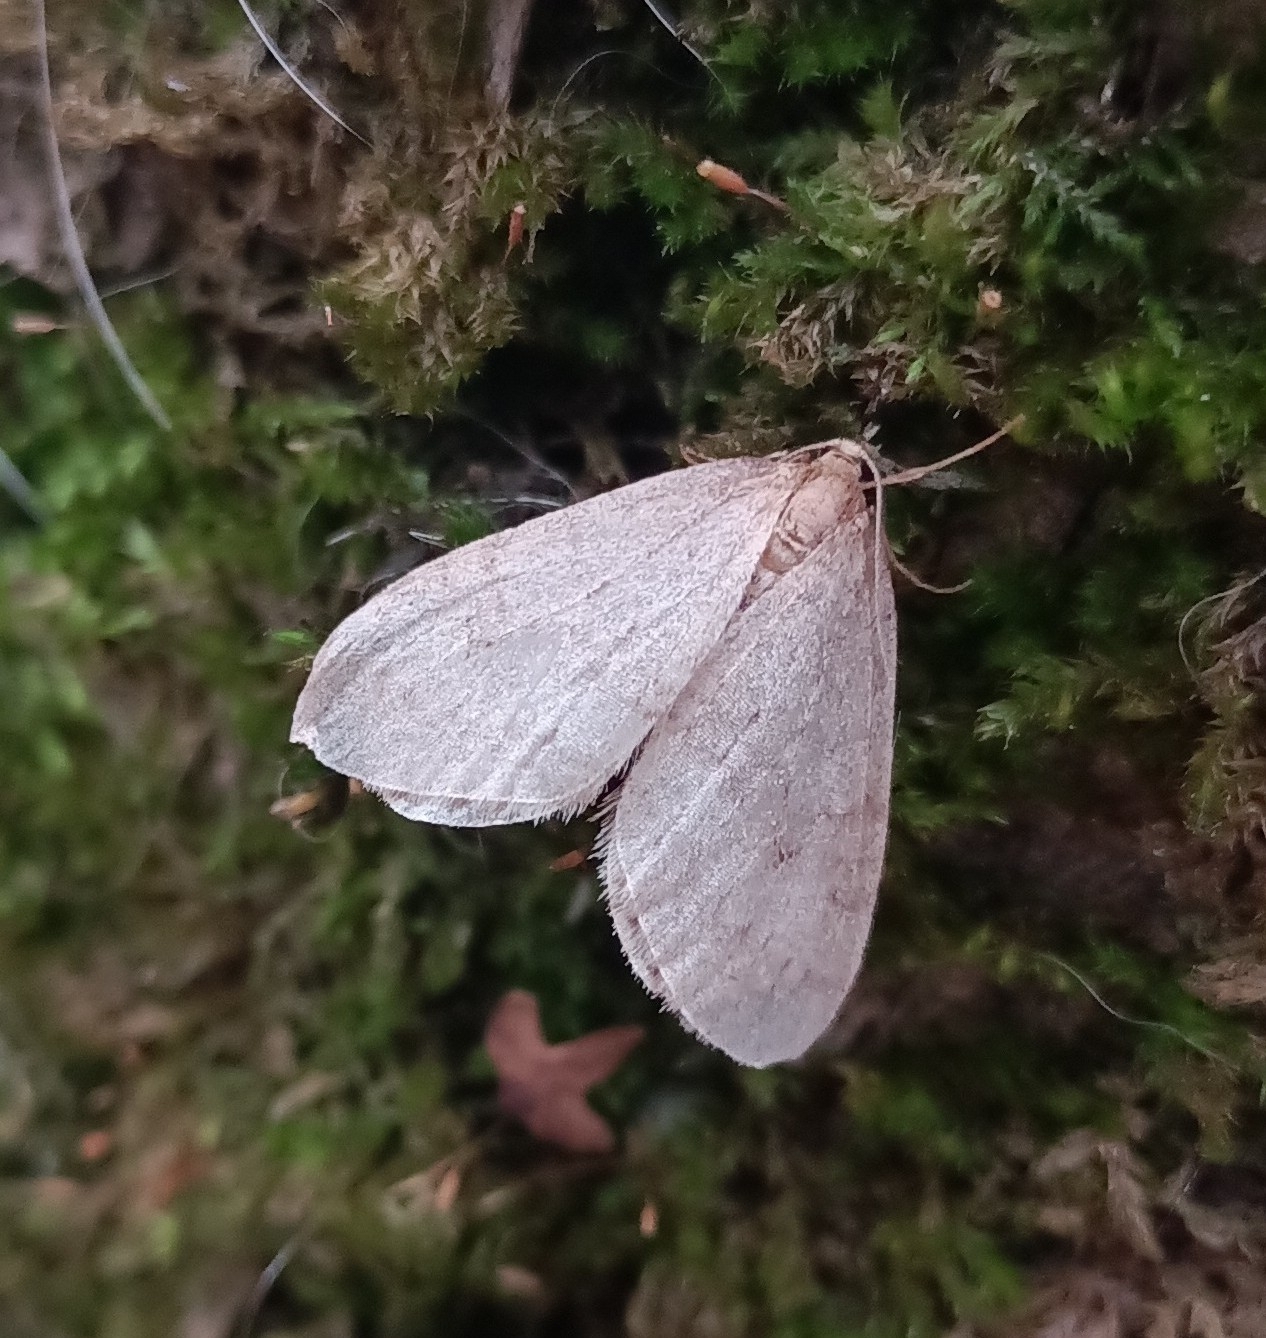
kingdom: Animalia
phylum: Arthropoda
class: Insecta
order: Lepidoptera
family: Geometridae
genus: Operophtera
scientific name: Operophtera brumata
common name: Winter moth
